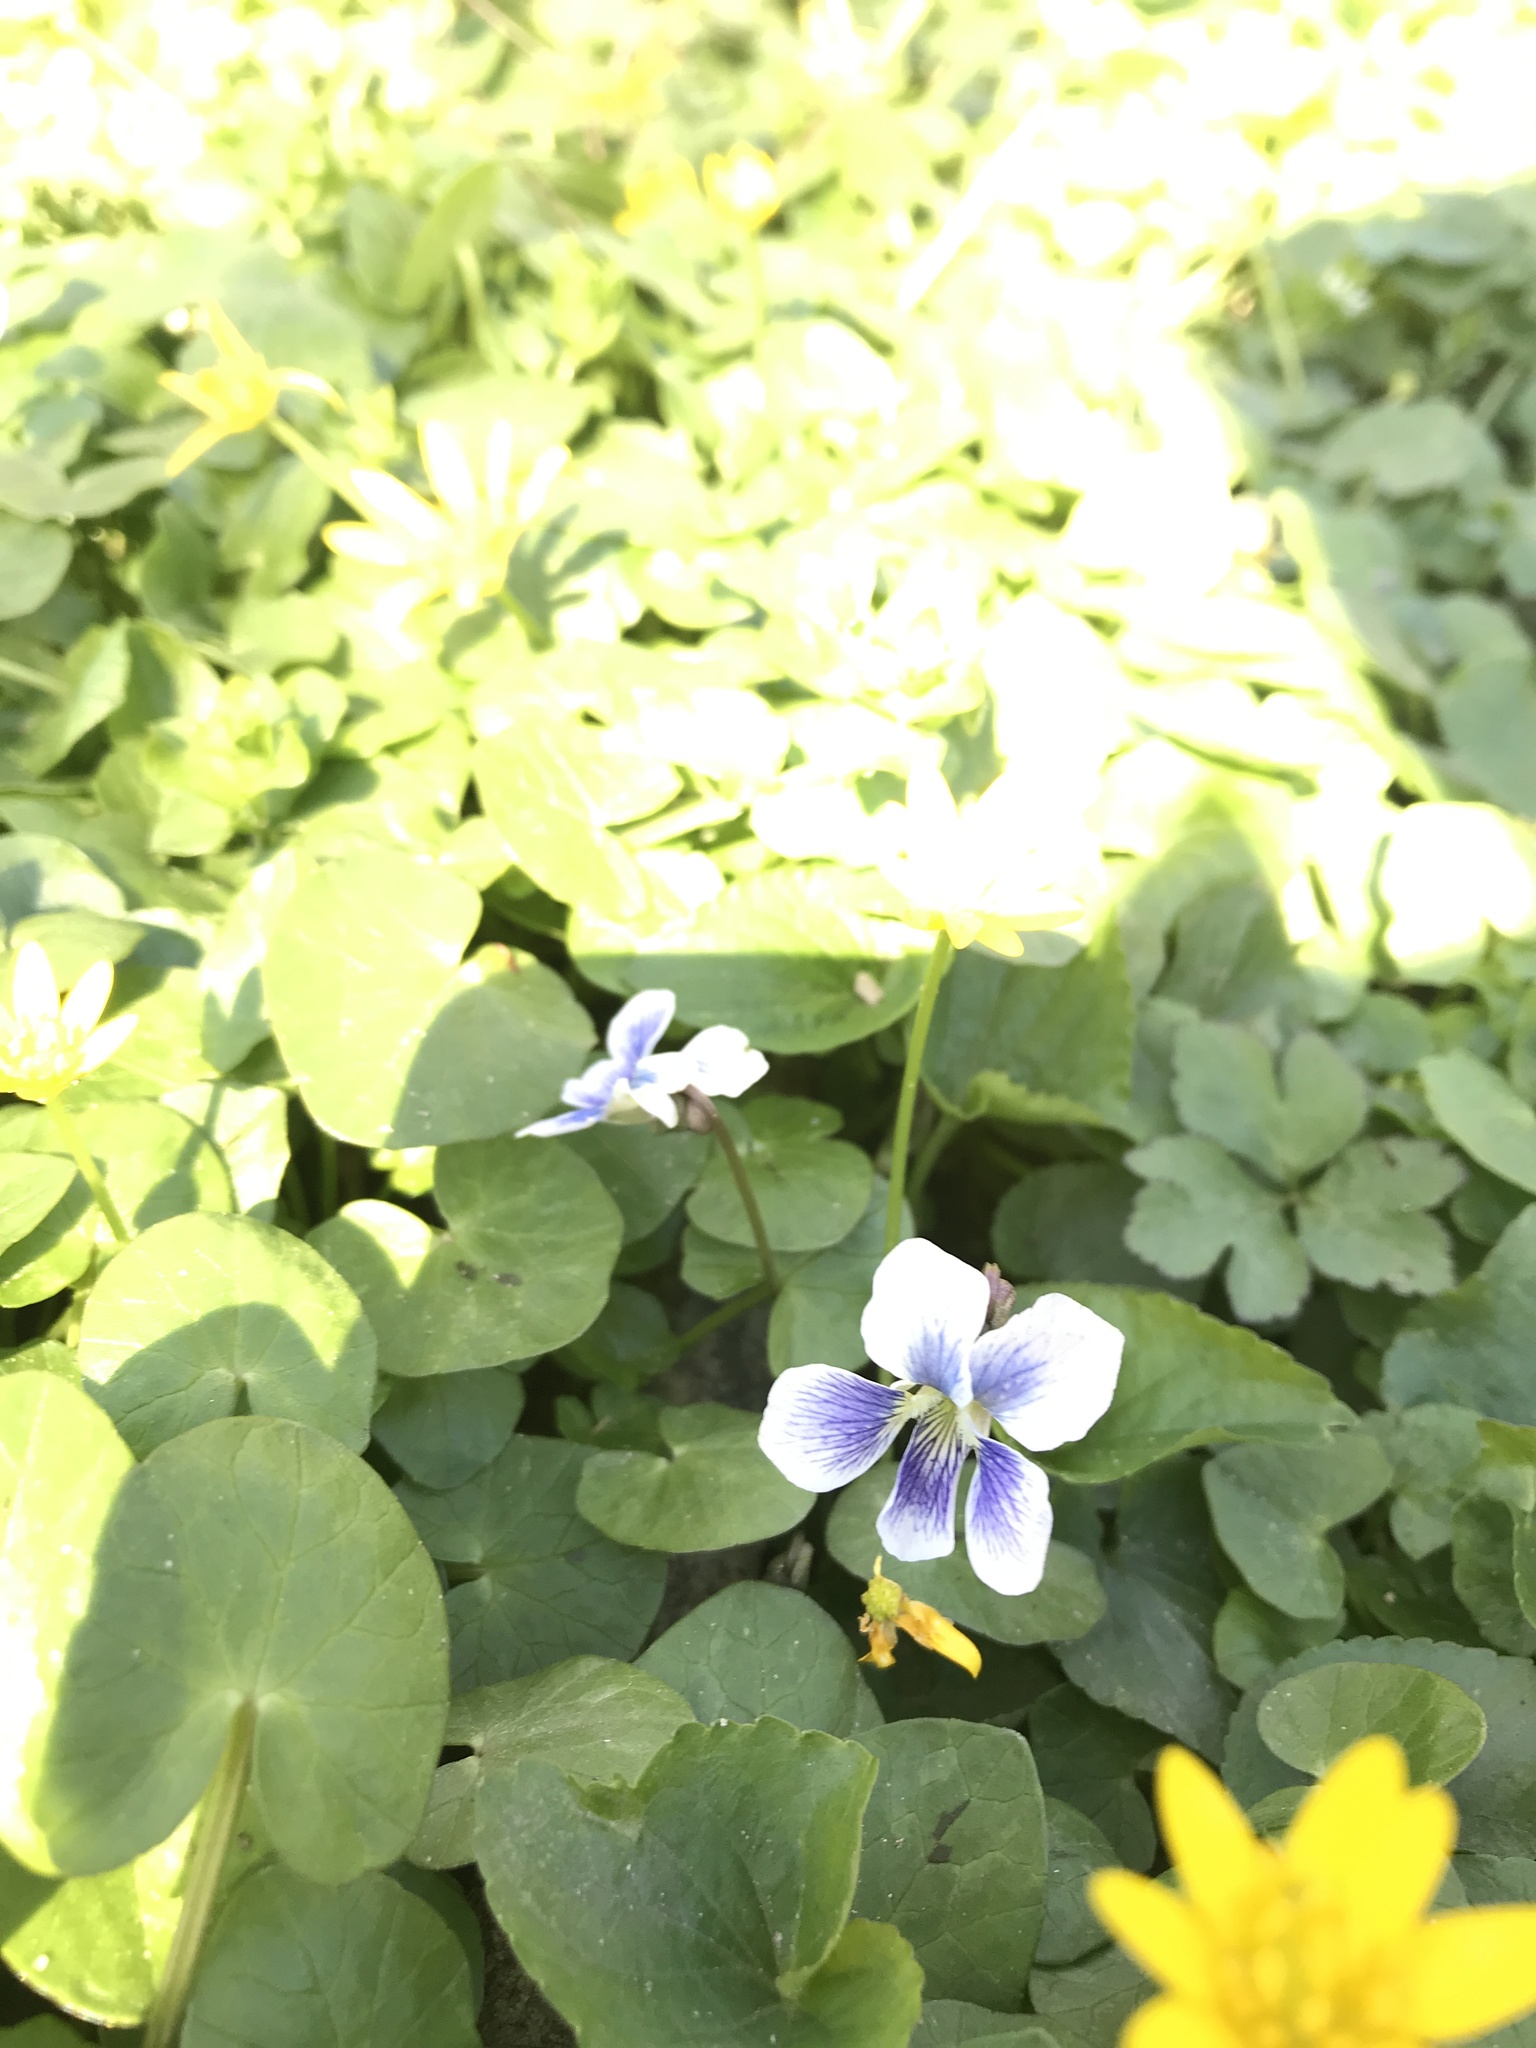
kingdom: Plantae
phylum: Tracheophyta
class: Magnoliopsida
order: Malpighiales
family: Violaceae
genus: Viola
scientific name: Viola sororia
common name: Dooryard violet
